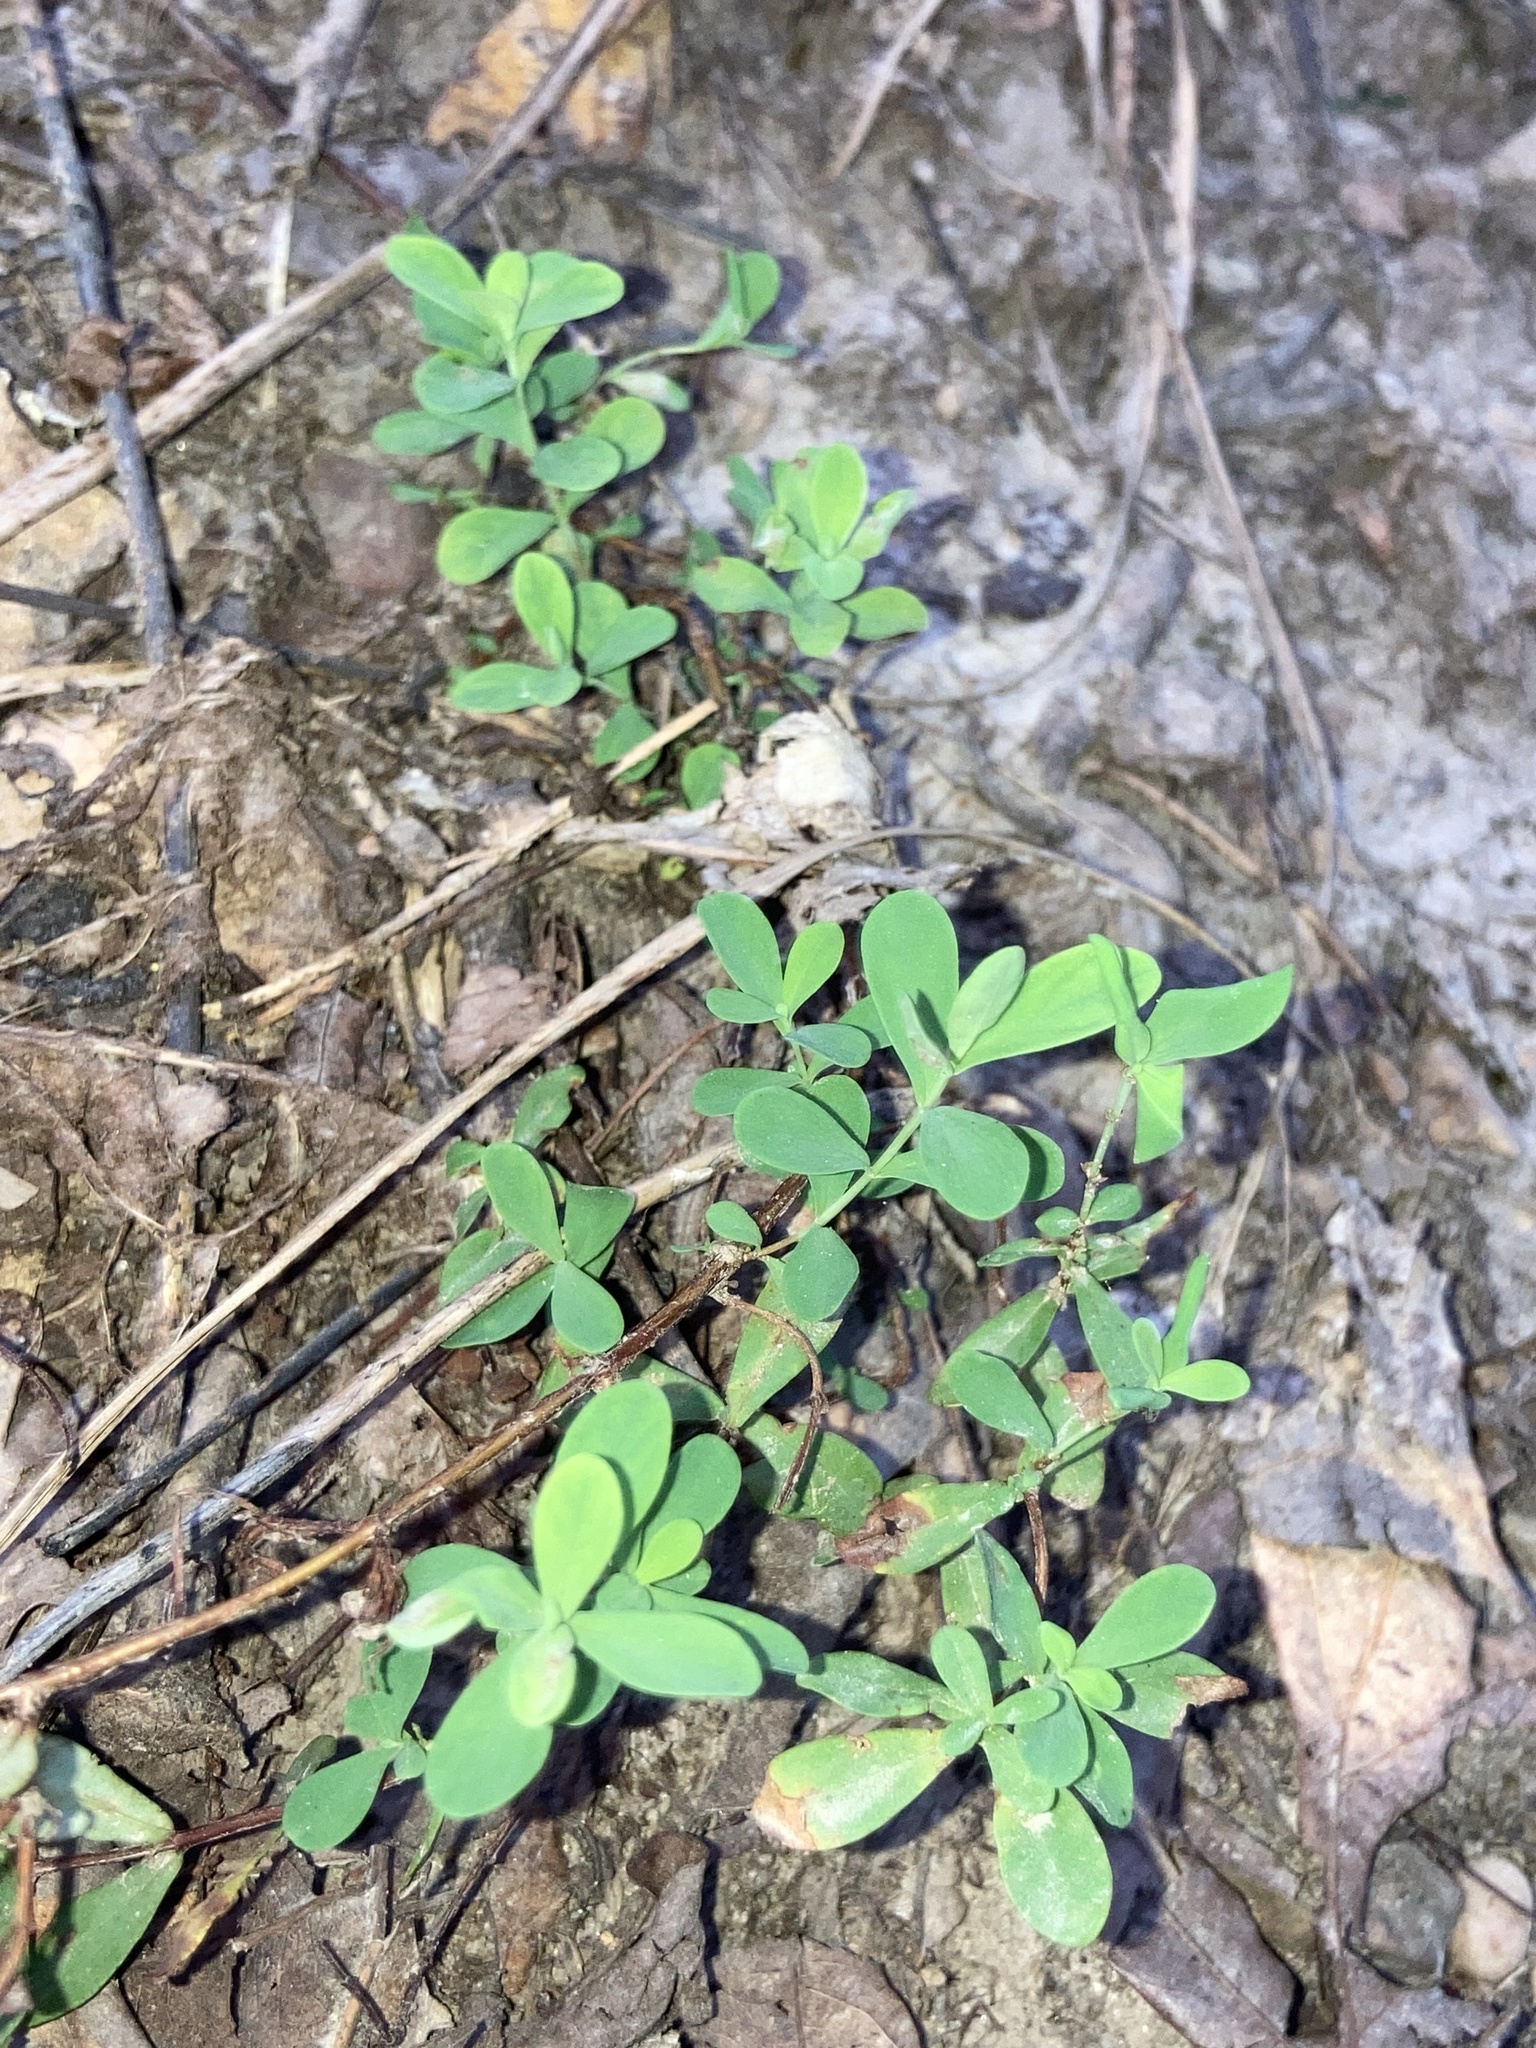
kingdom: Plantae
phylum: Tracheophyta
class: Magnoliopsida
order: Malpighiales
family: Hypericaceae
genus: Hypericum
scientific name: Hypericum hypericoides
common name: St. andrew's cross
